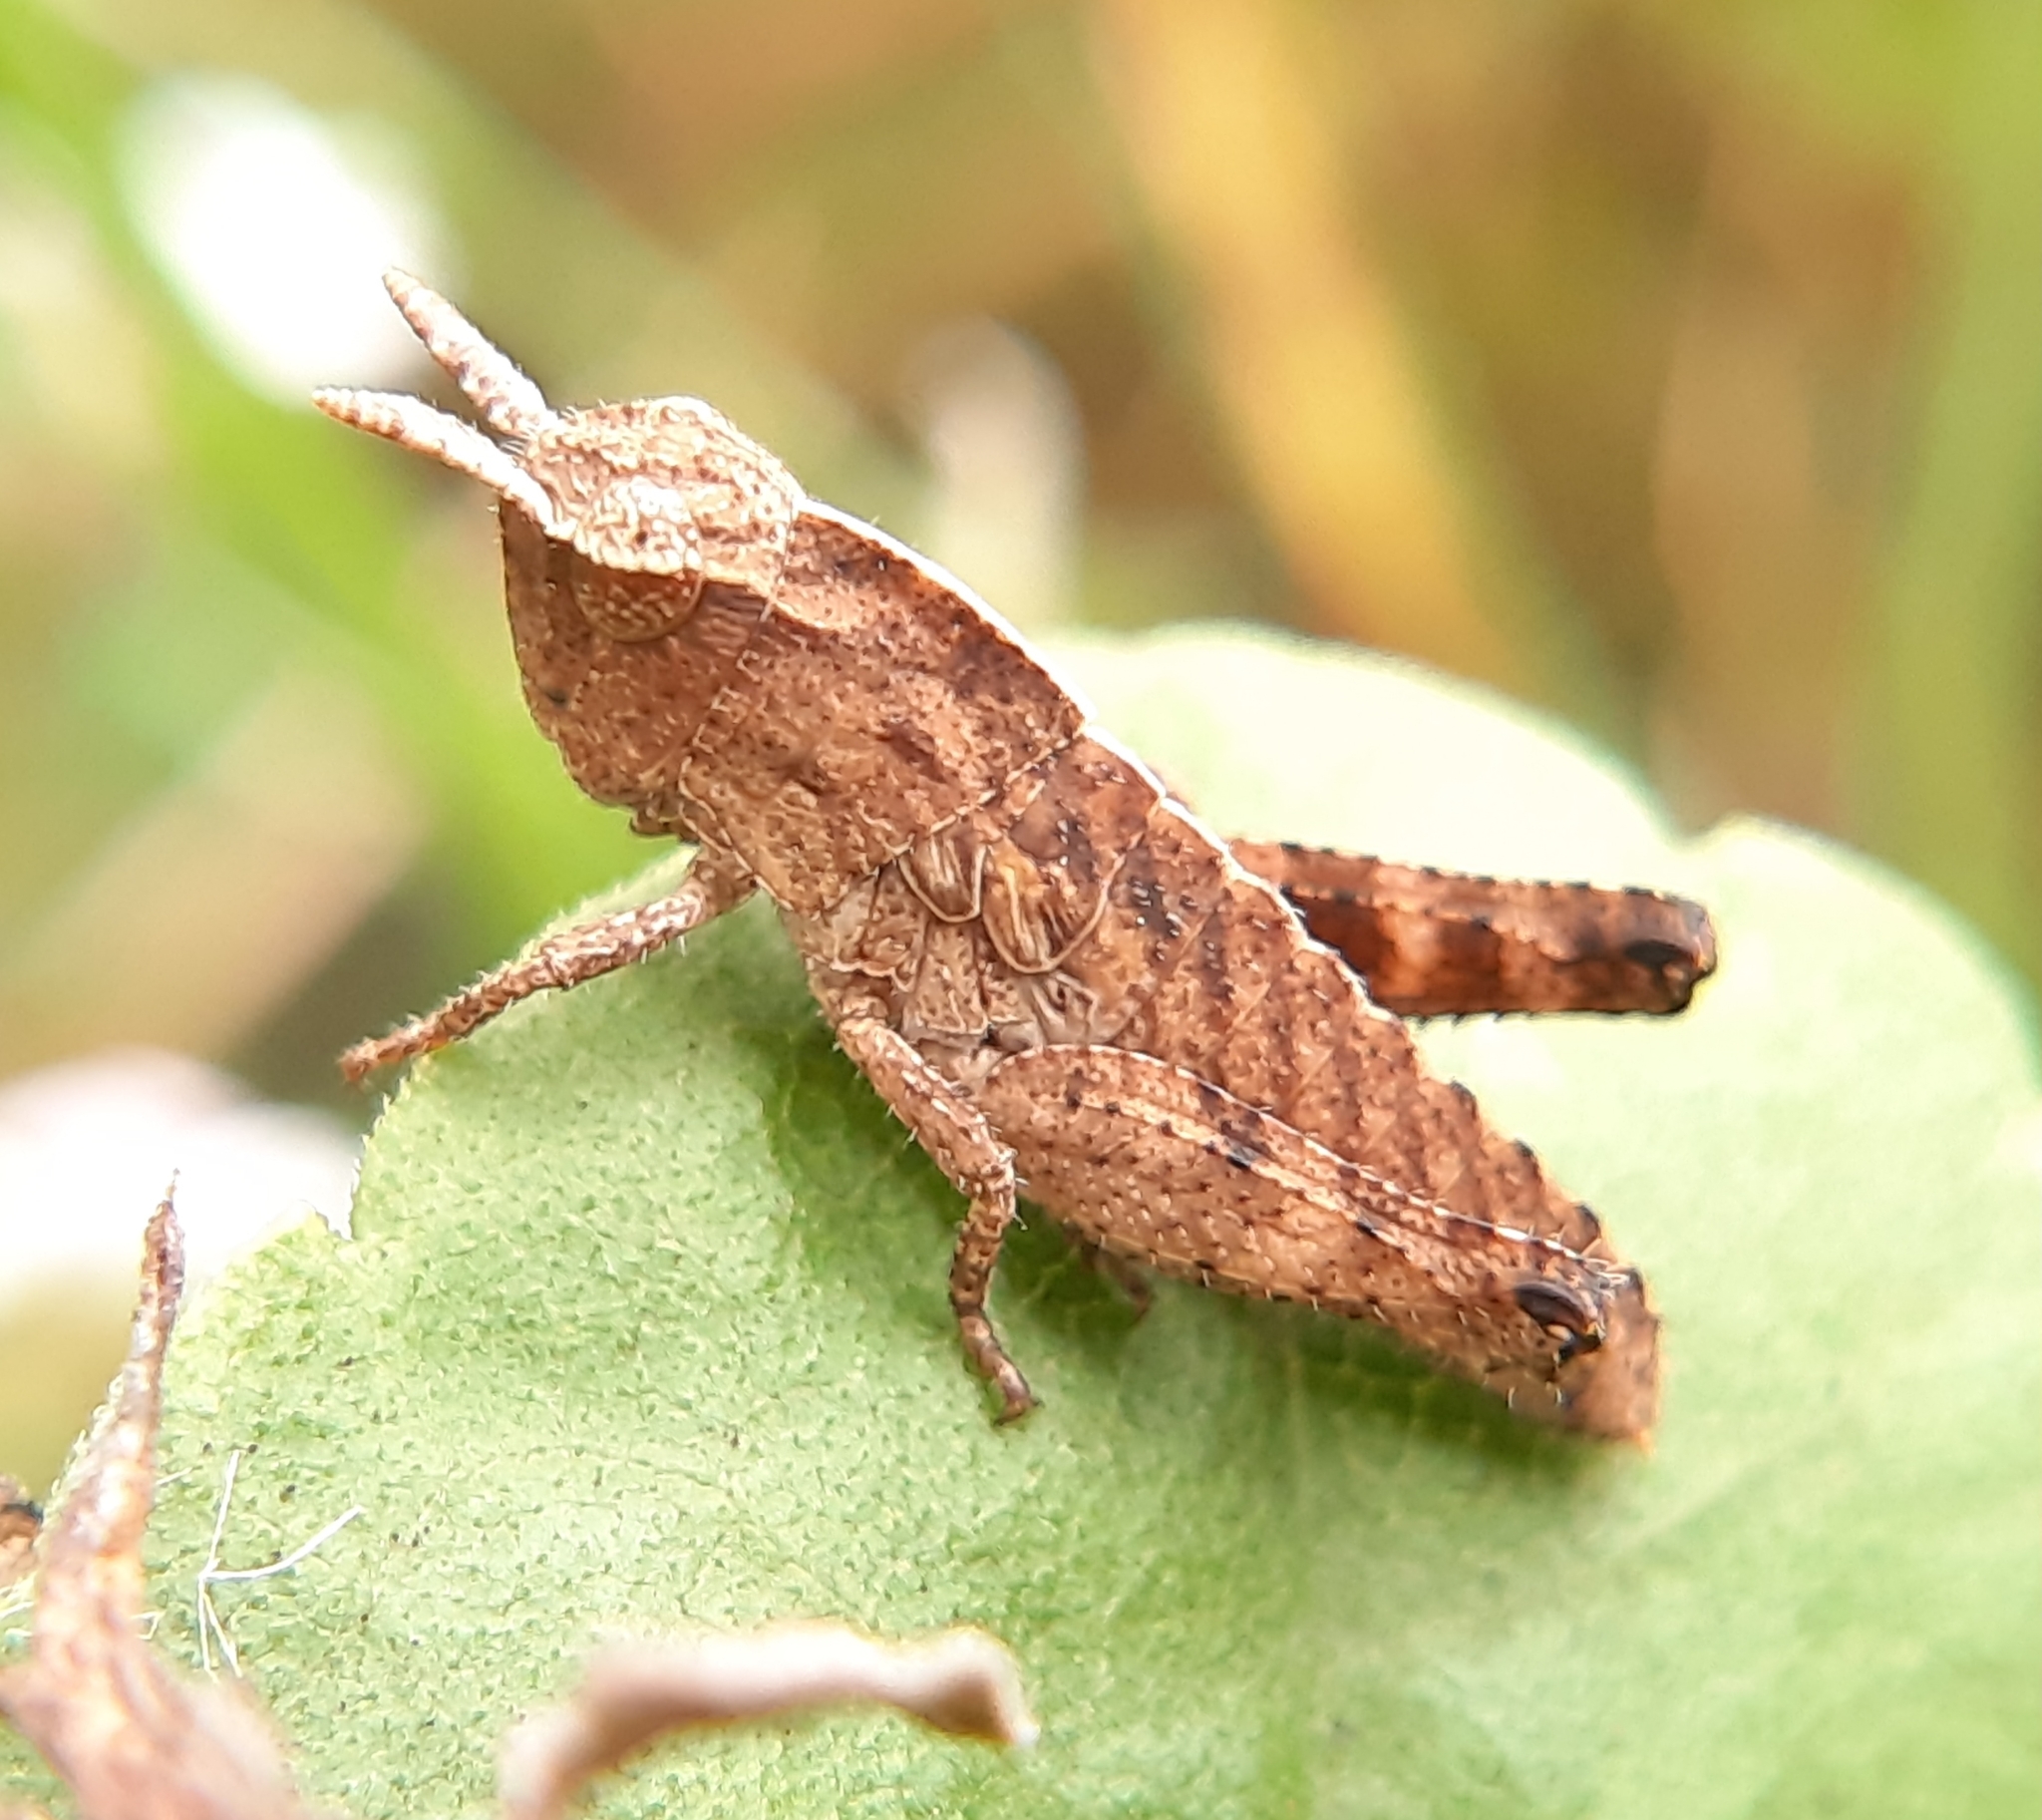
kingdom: Animalia
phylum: Arthropoda
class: Insecta
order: Orthoptera
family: Acrididae
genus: Chortophaga
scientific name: Chortophaga viridifasciata
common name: Green-striped grasshopper
